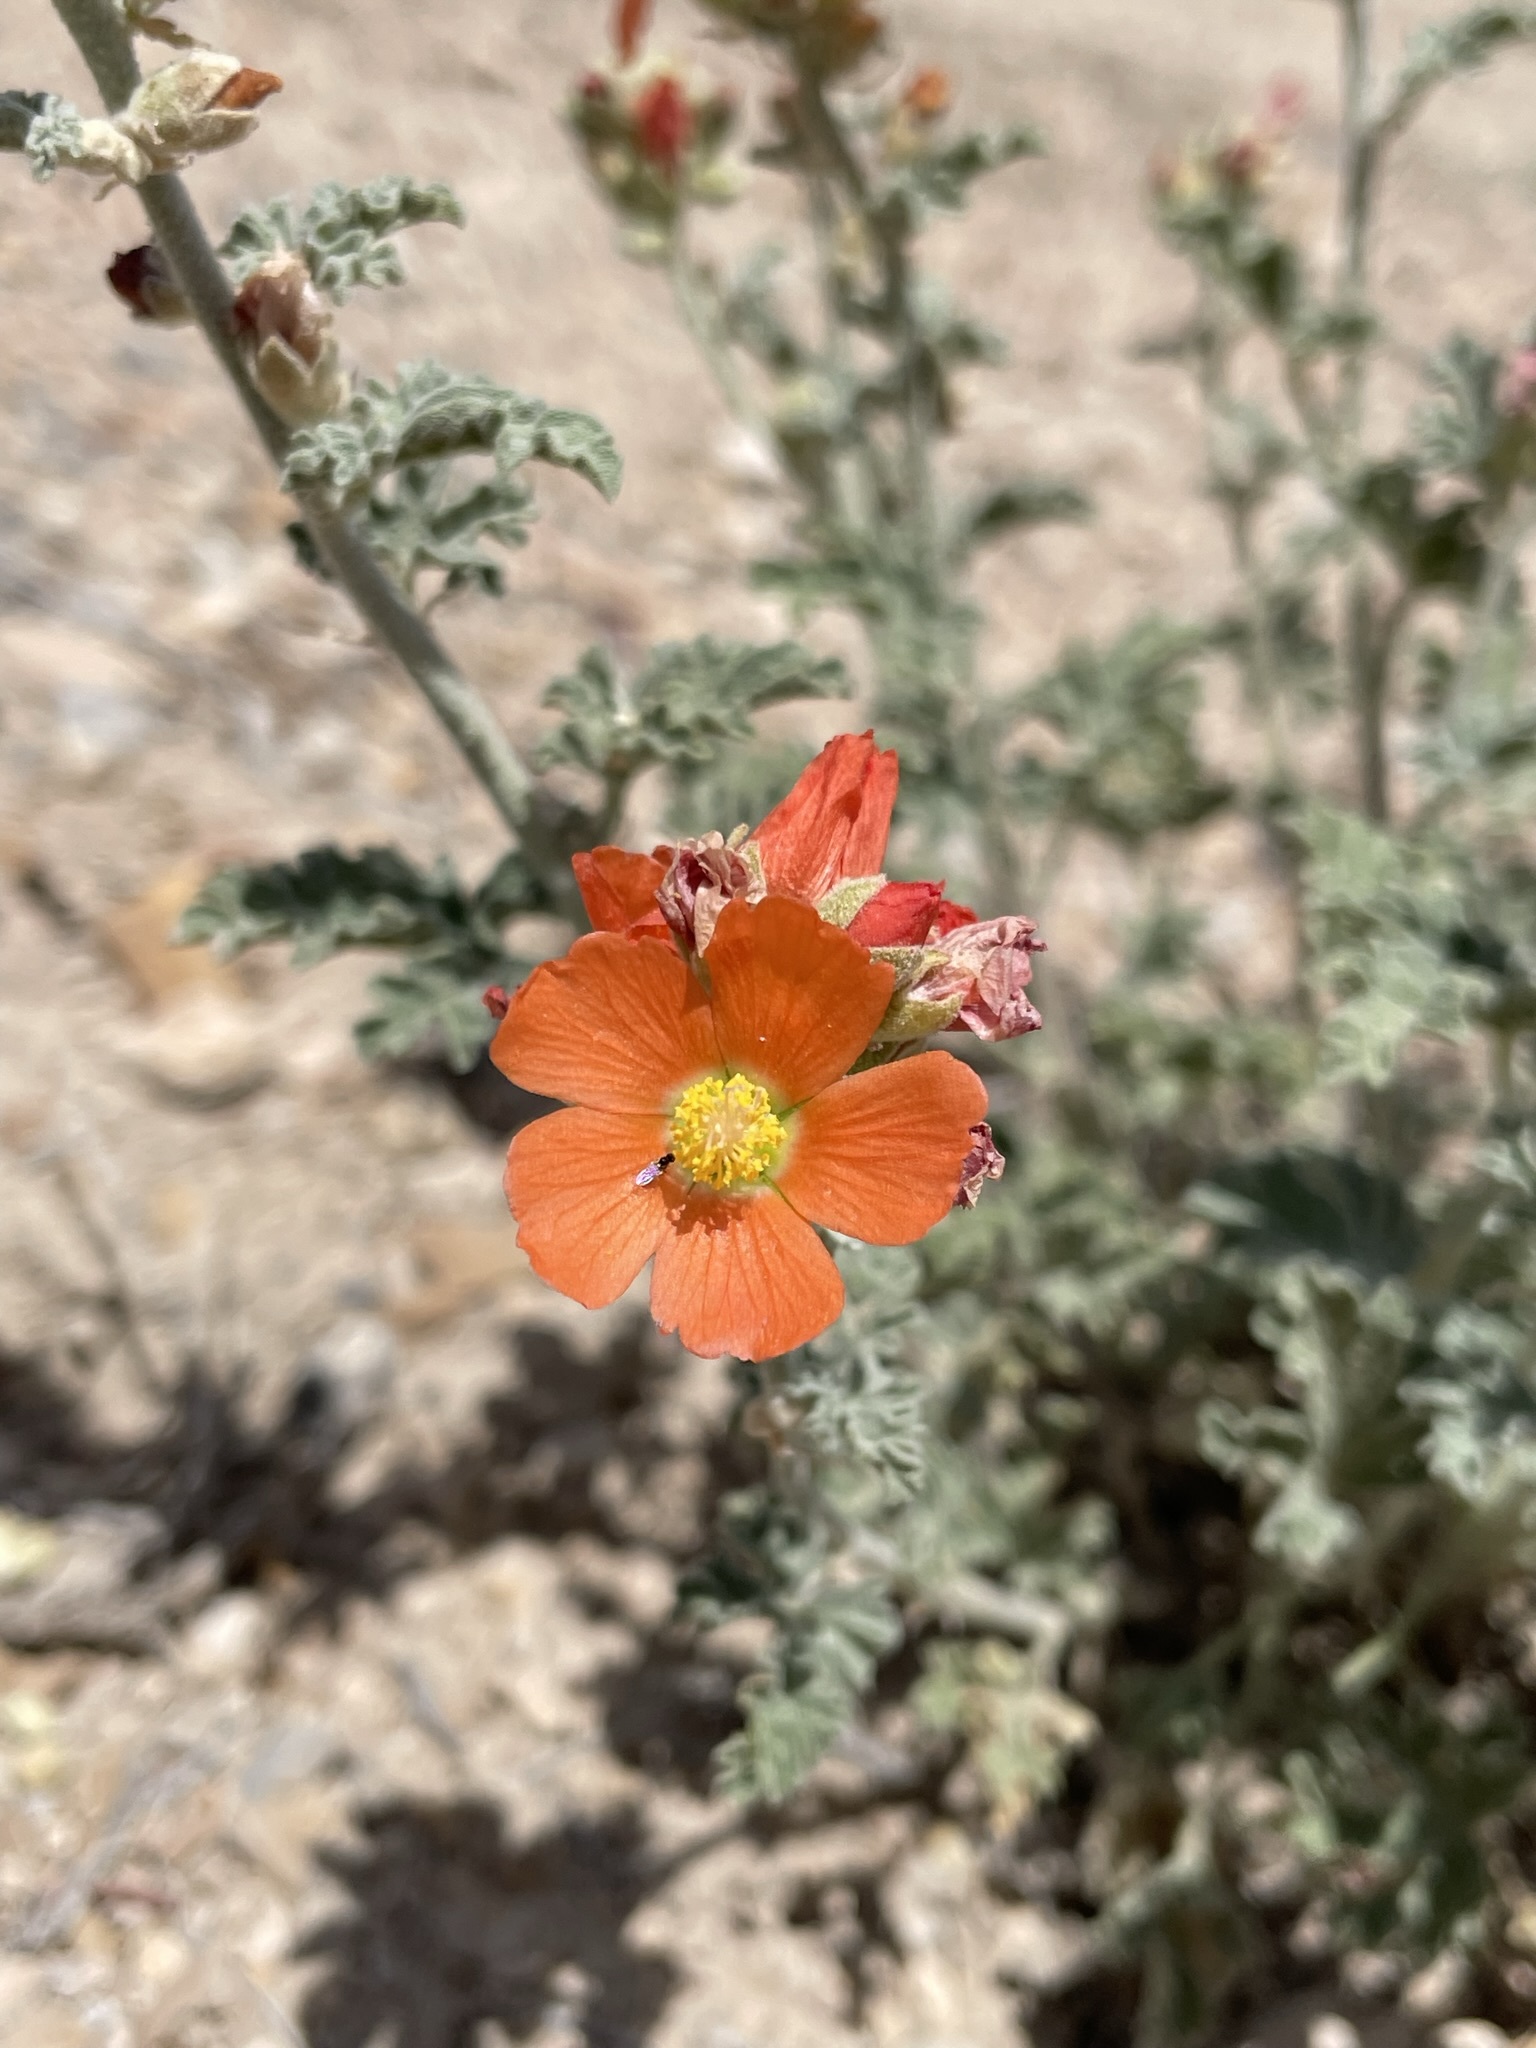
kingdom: Plantae
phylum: Tracheophyta
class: Magnoliopsida
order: Malvales
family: Malvaceae
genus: Sphaeralcea
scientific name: Sphaeralcea grossulariifolia
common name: Current-leaf globe-mallow
